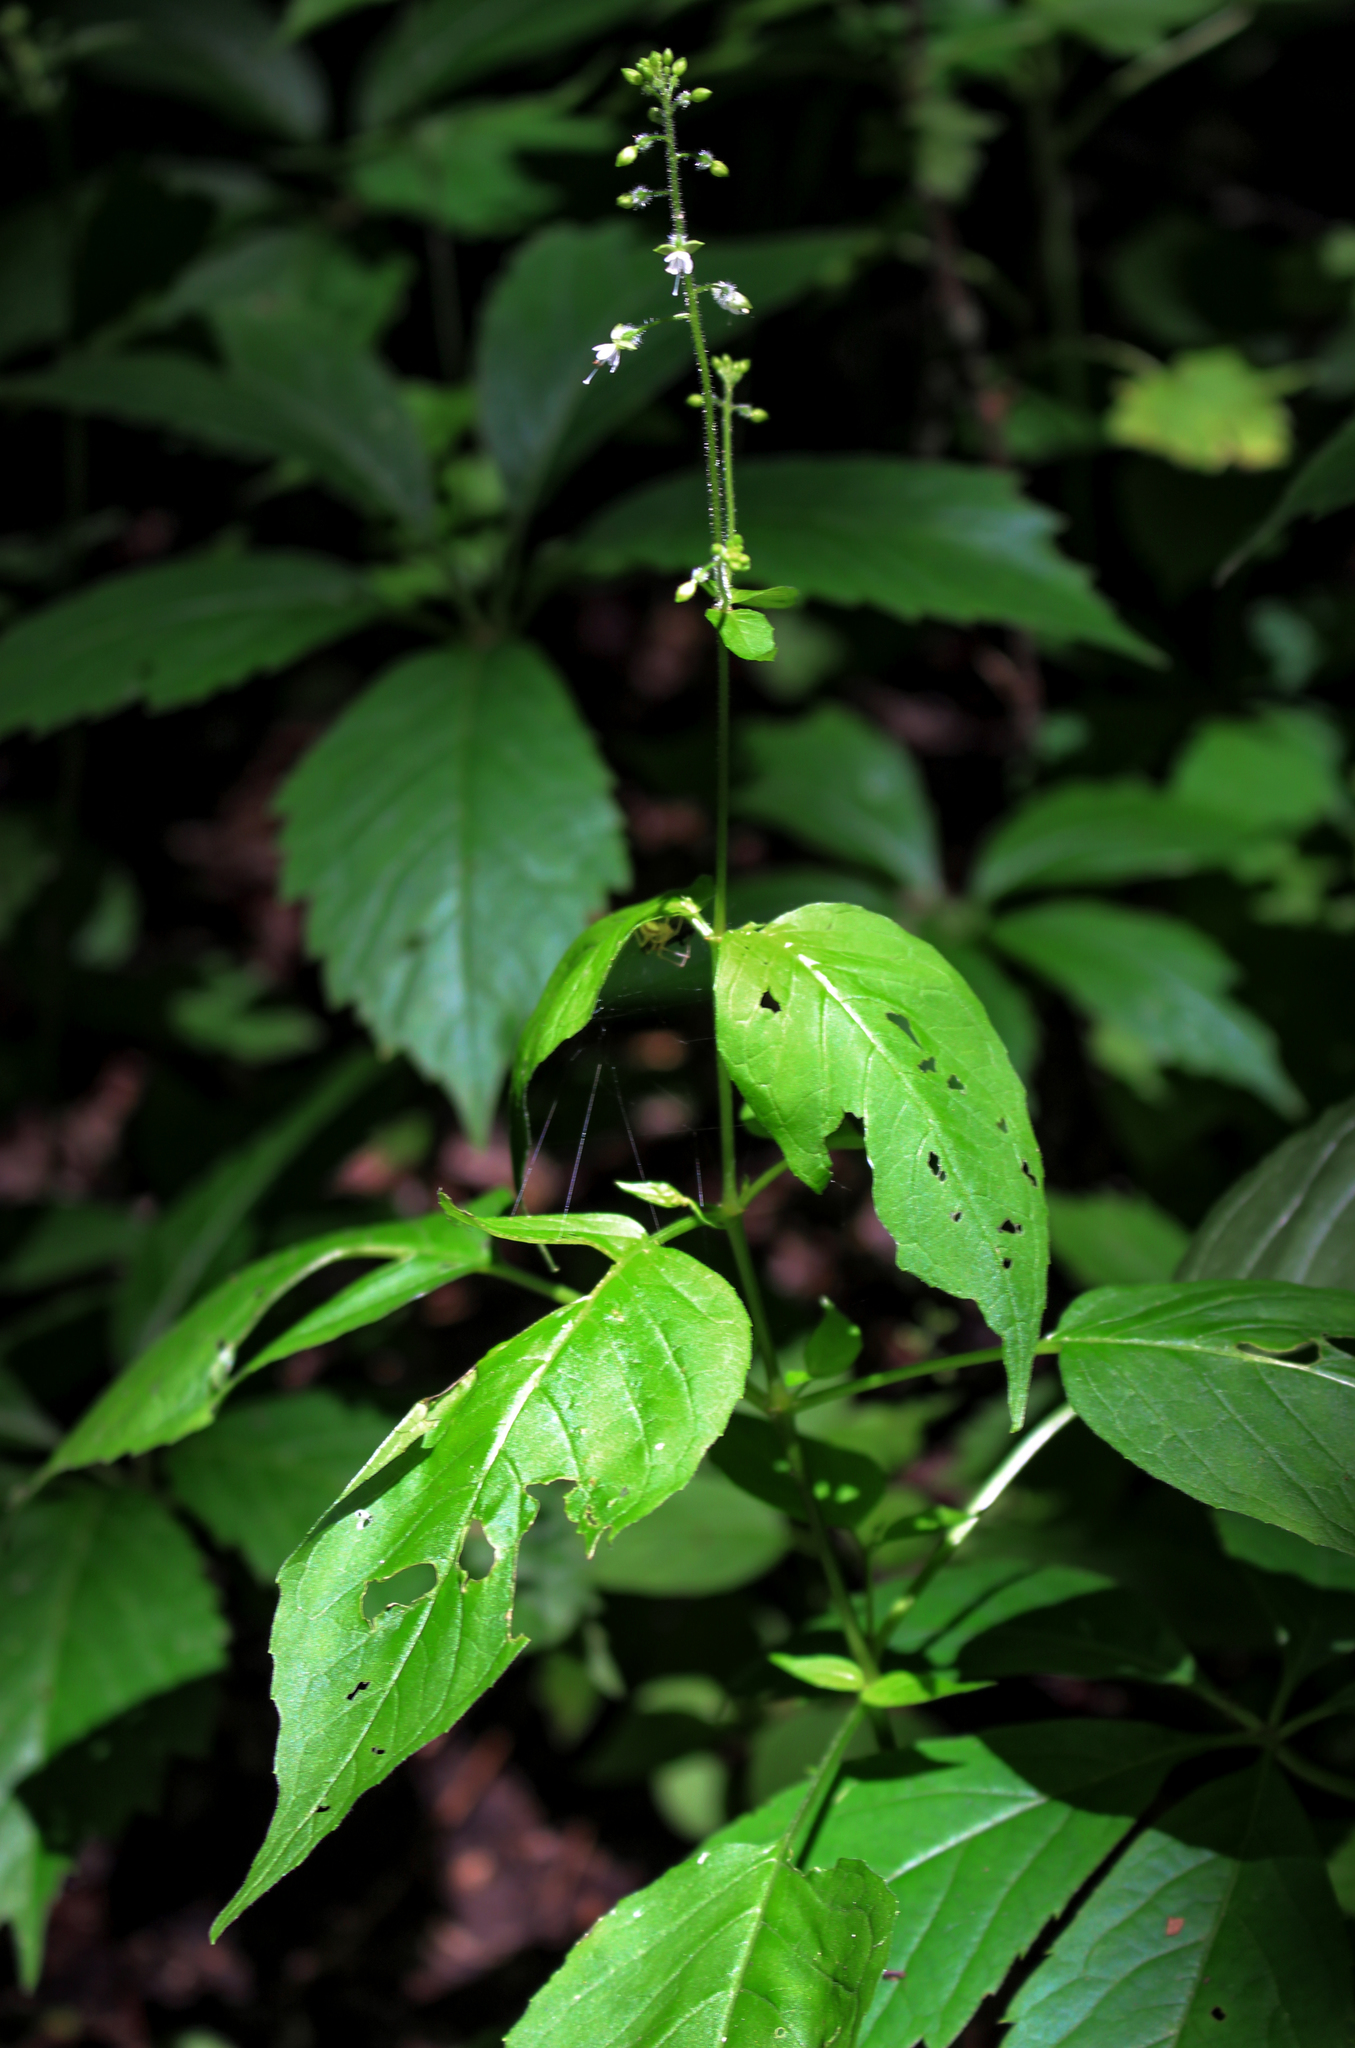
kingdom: Plantae
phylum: Tracheophyta
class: Magnoliopsida
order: Myrtales
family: Onagraceae
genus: Circaea
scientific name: Circaea canadensis
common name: Broad-leaved enchanter's nightshade
